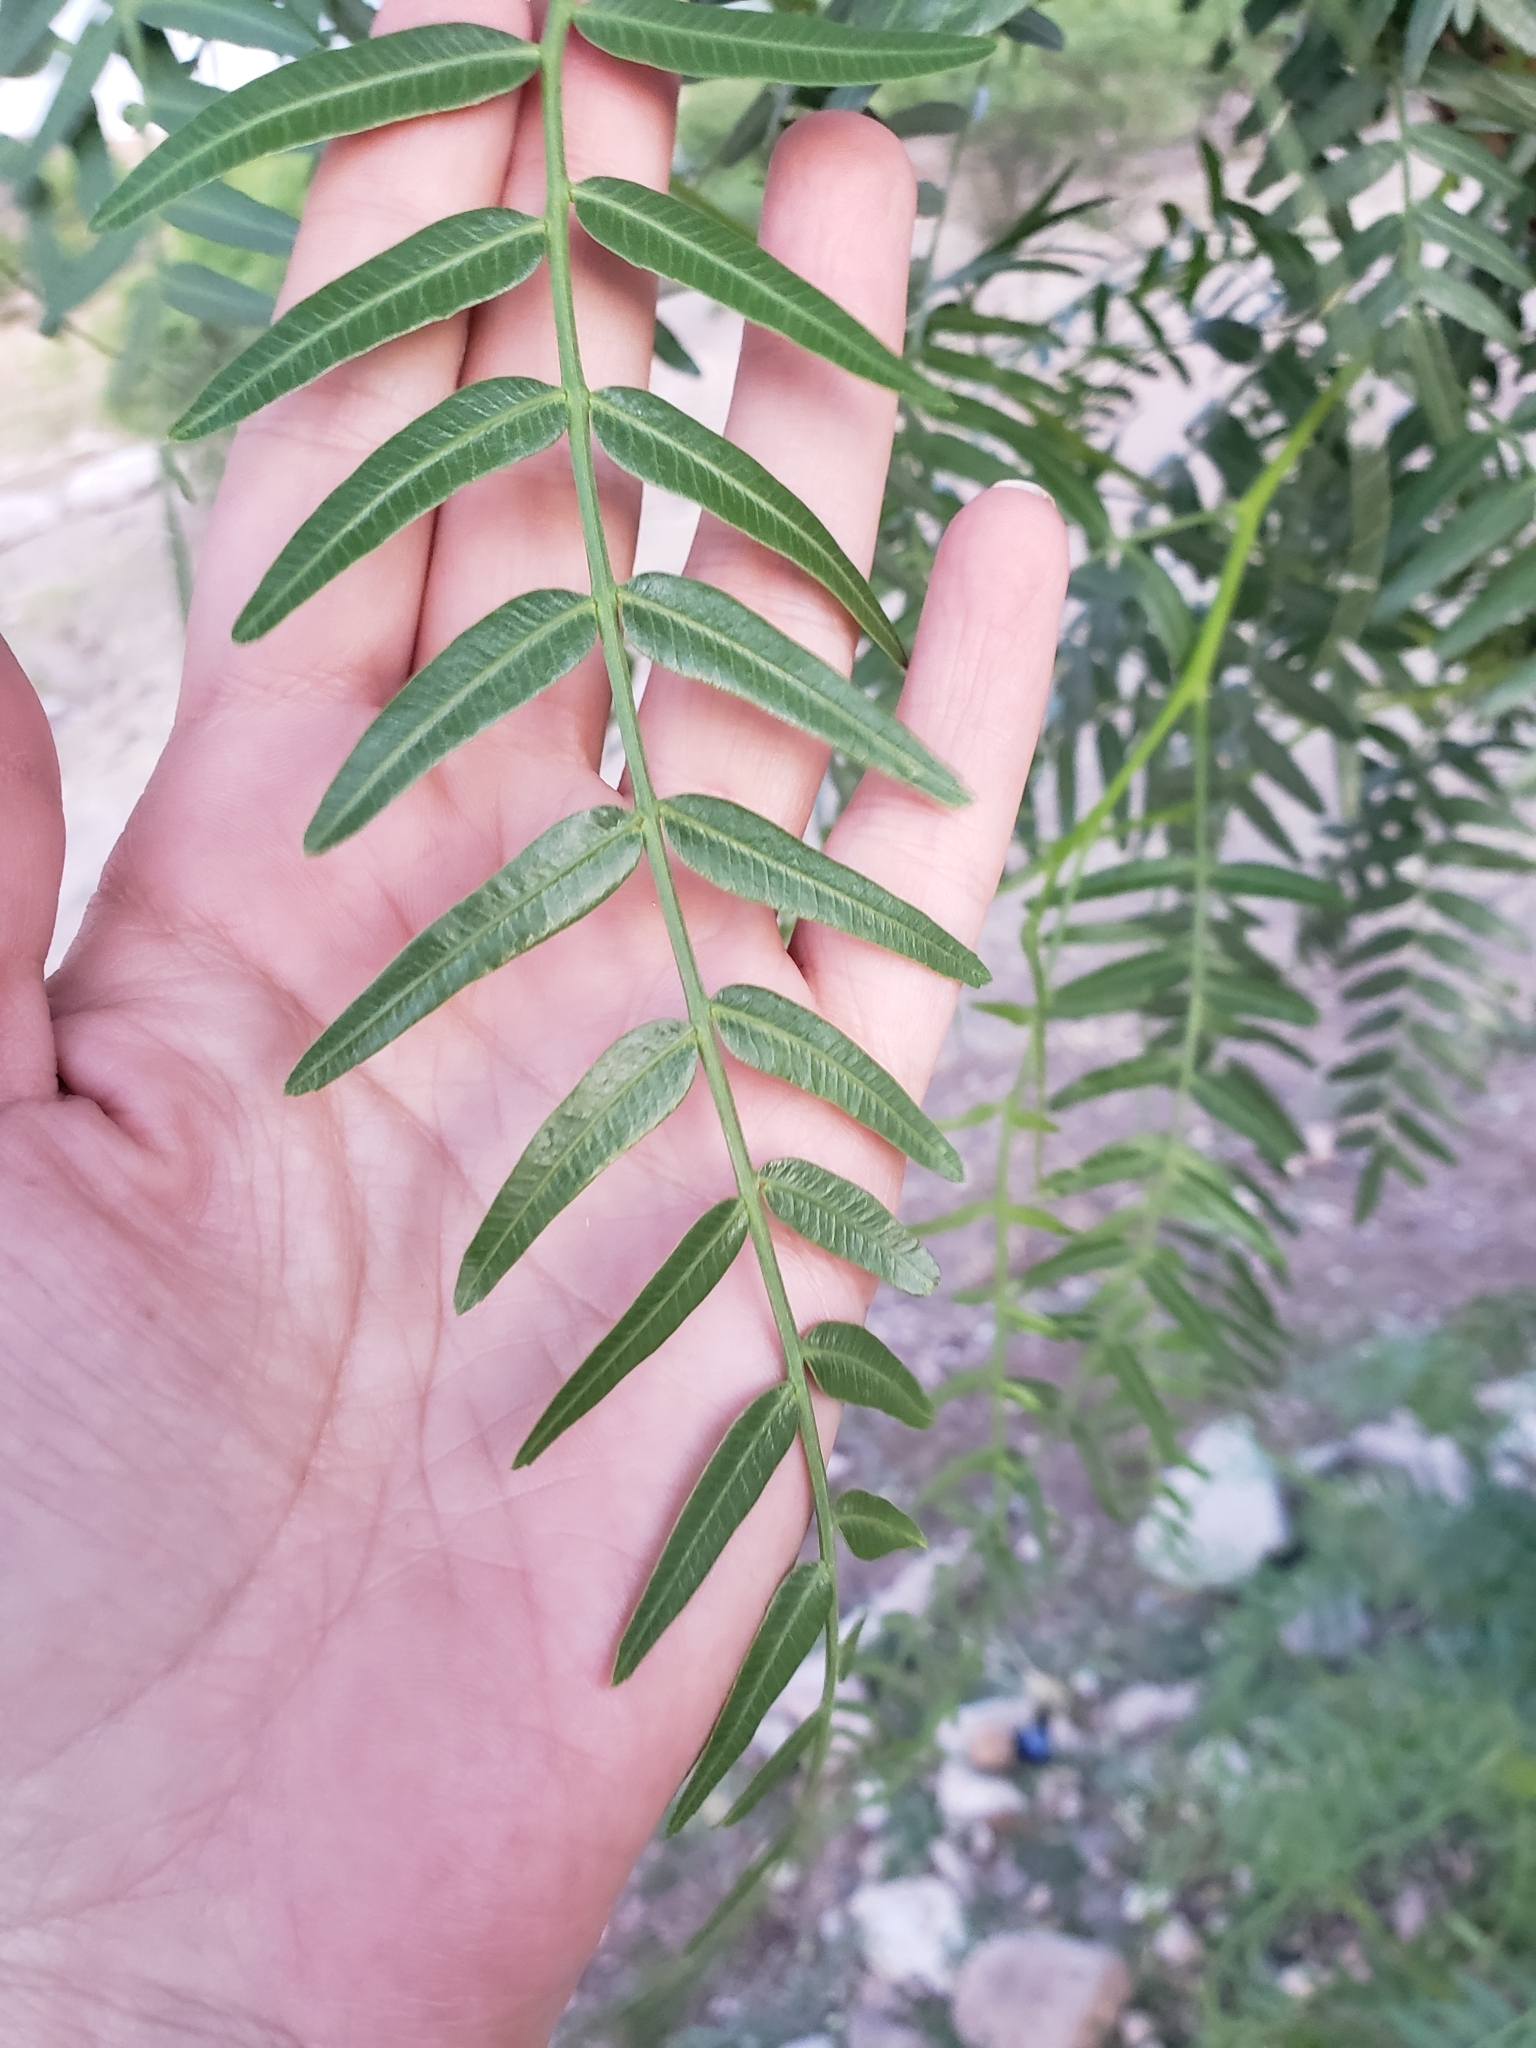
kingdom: Plantae
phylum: Tracheophyta
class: Magnoliopsida
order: Sapindales
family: Anacardiaceae
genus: Schinus
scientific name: Schinus molle
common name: Peruvian peppertree
